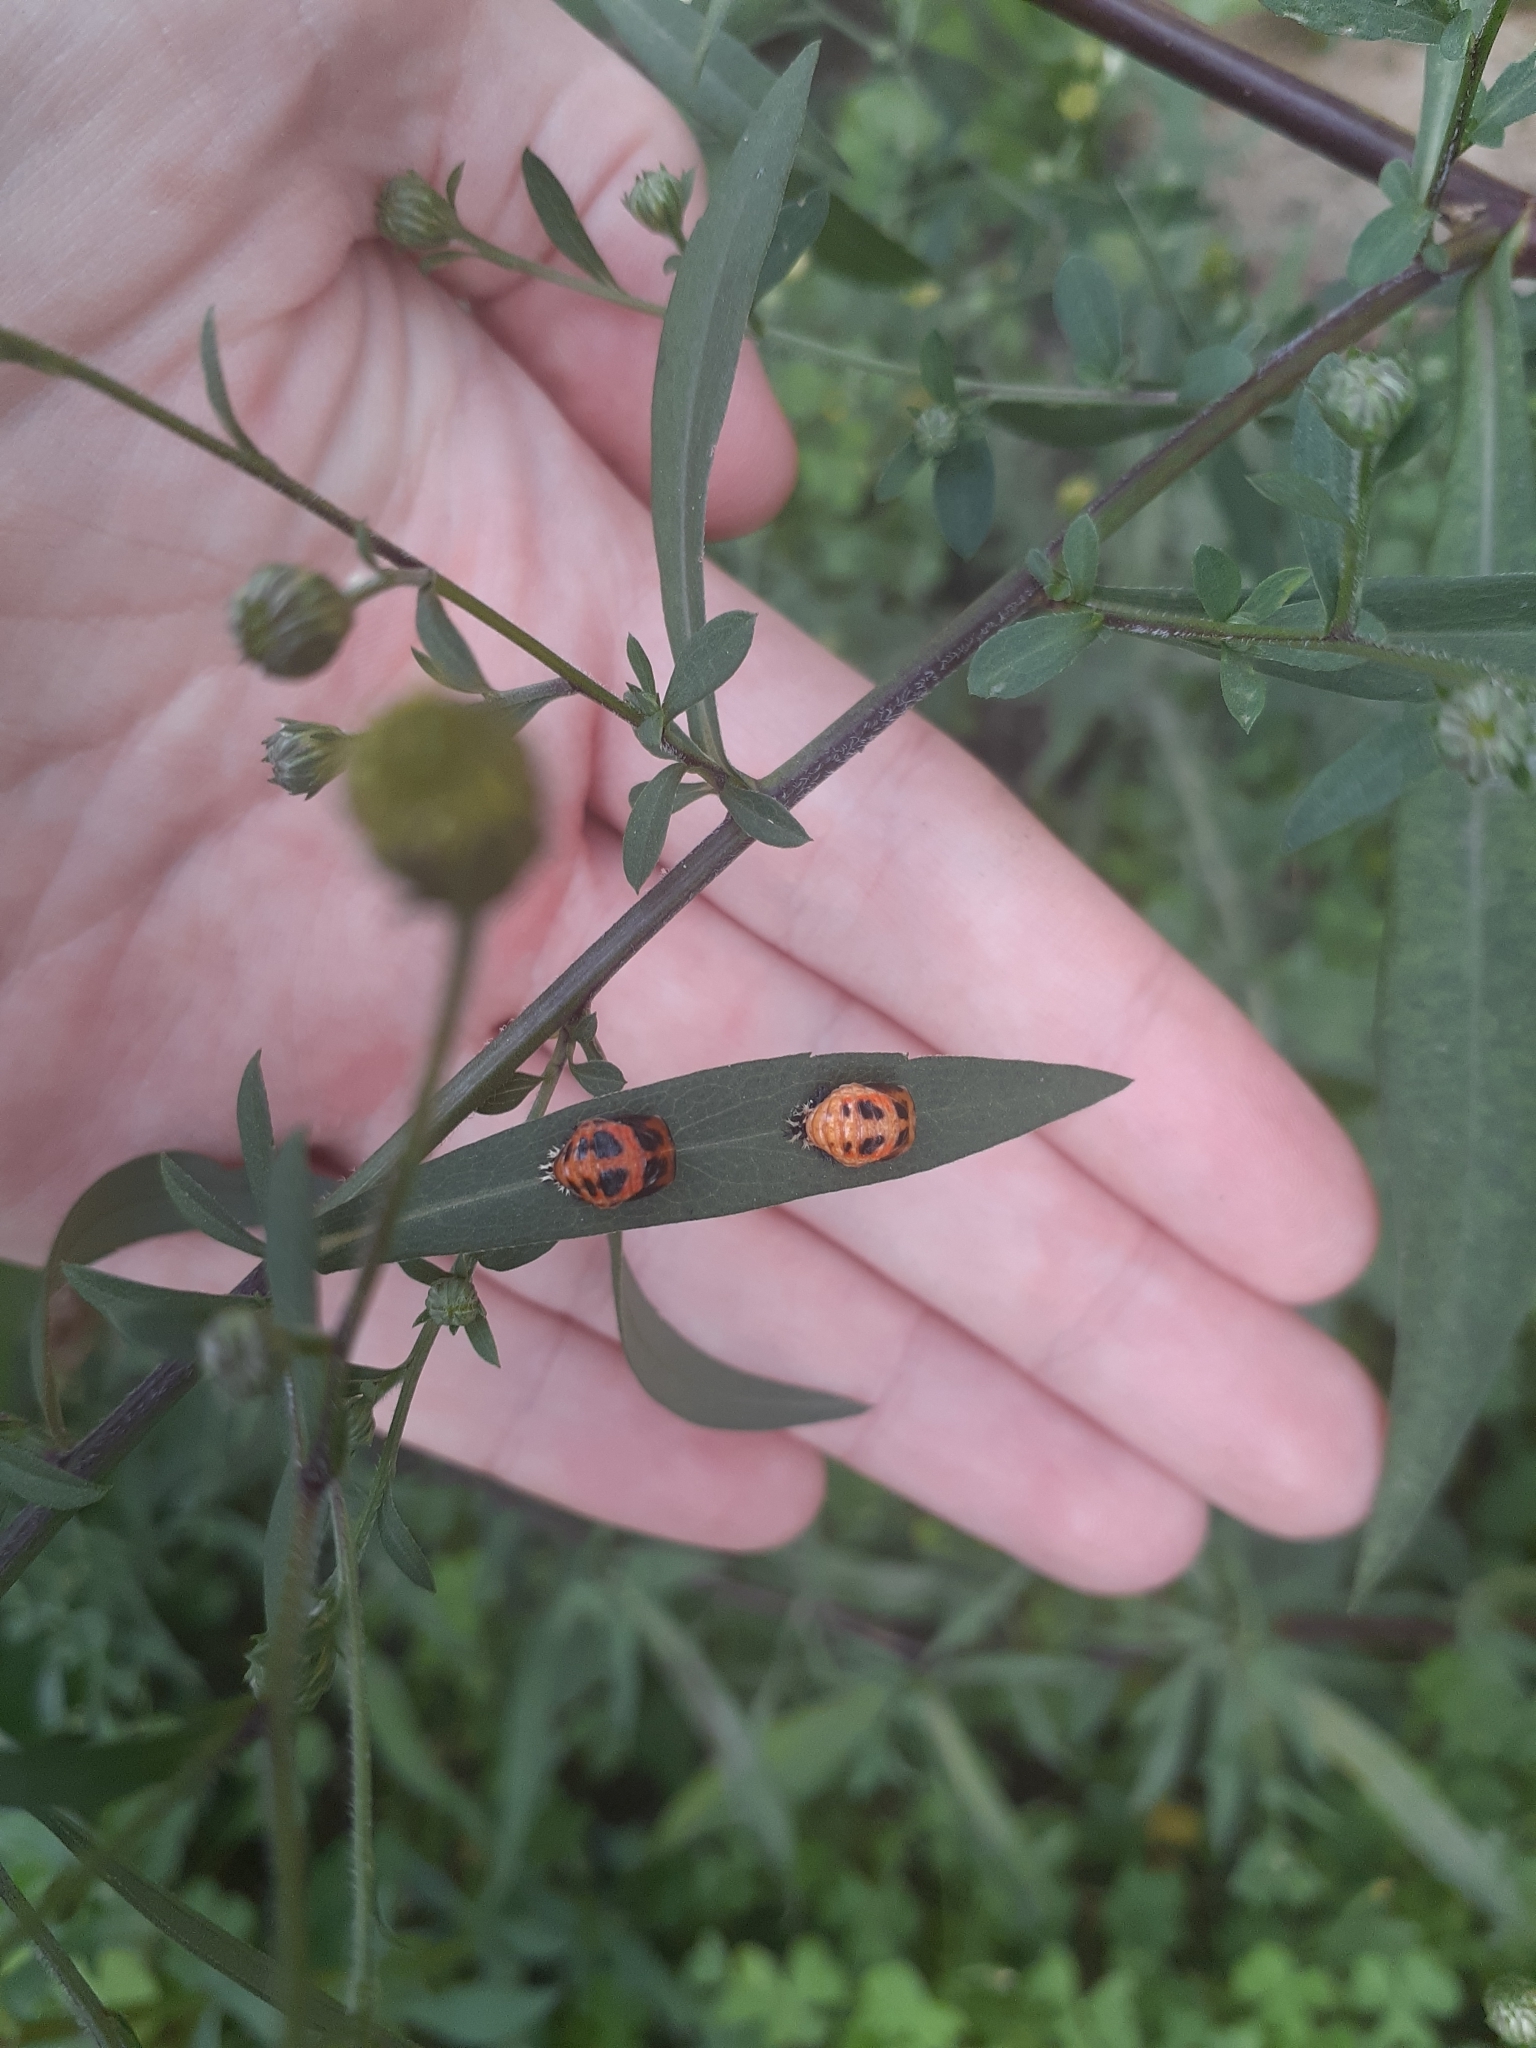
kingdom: Animalia
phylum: Arthropoda
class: Insecta
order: Coleoptera
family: Coccinellidae
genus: Harmonia
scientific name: Harmonia axyridis
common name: Harlequin ladybird
